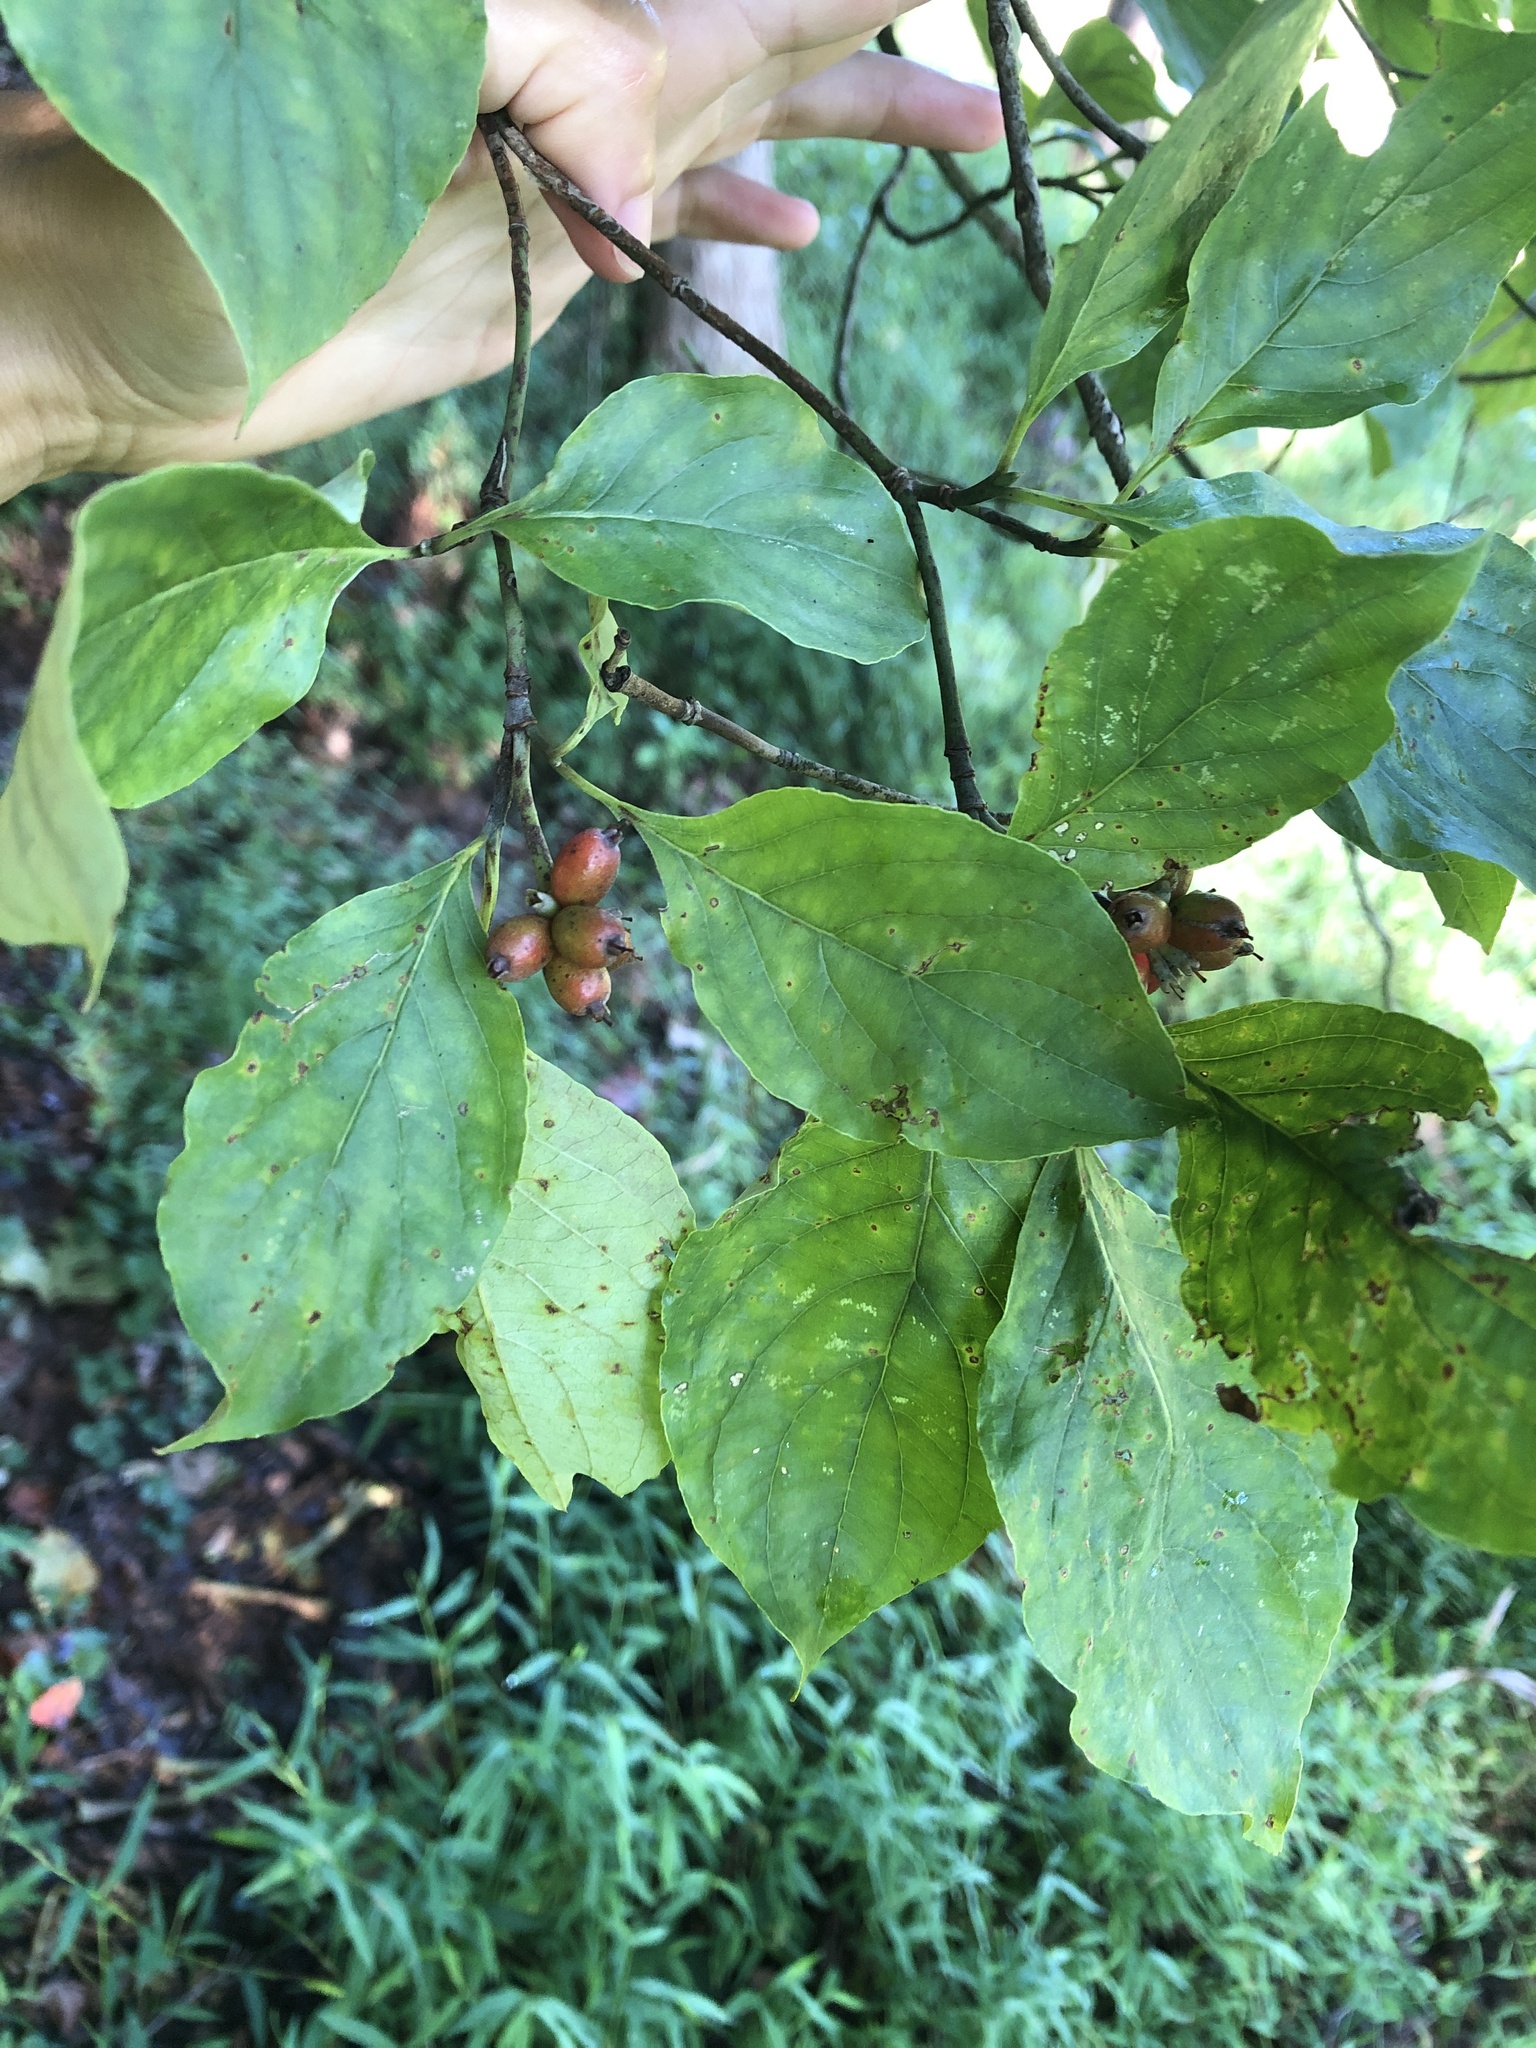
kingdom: Plantae
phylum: Tracheophyta
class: Magnoliopsida
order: Cornales
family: Cornaceae
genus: Cornus
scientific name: Cornus florida
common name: Flowering dogwood
